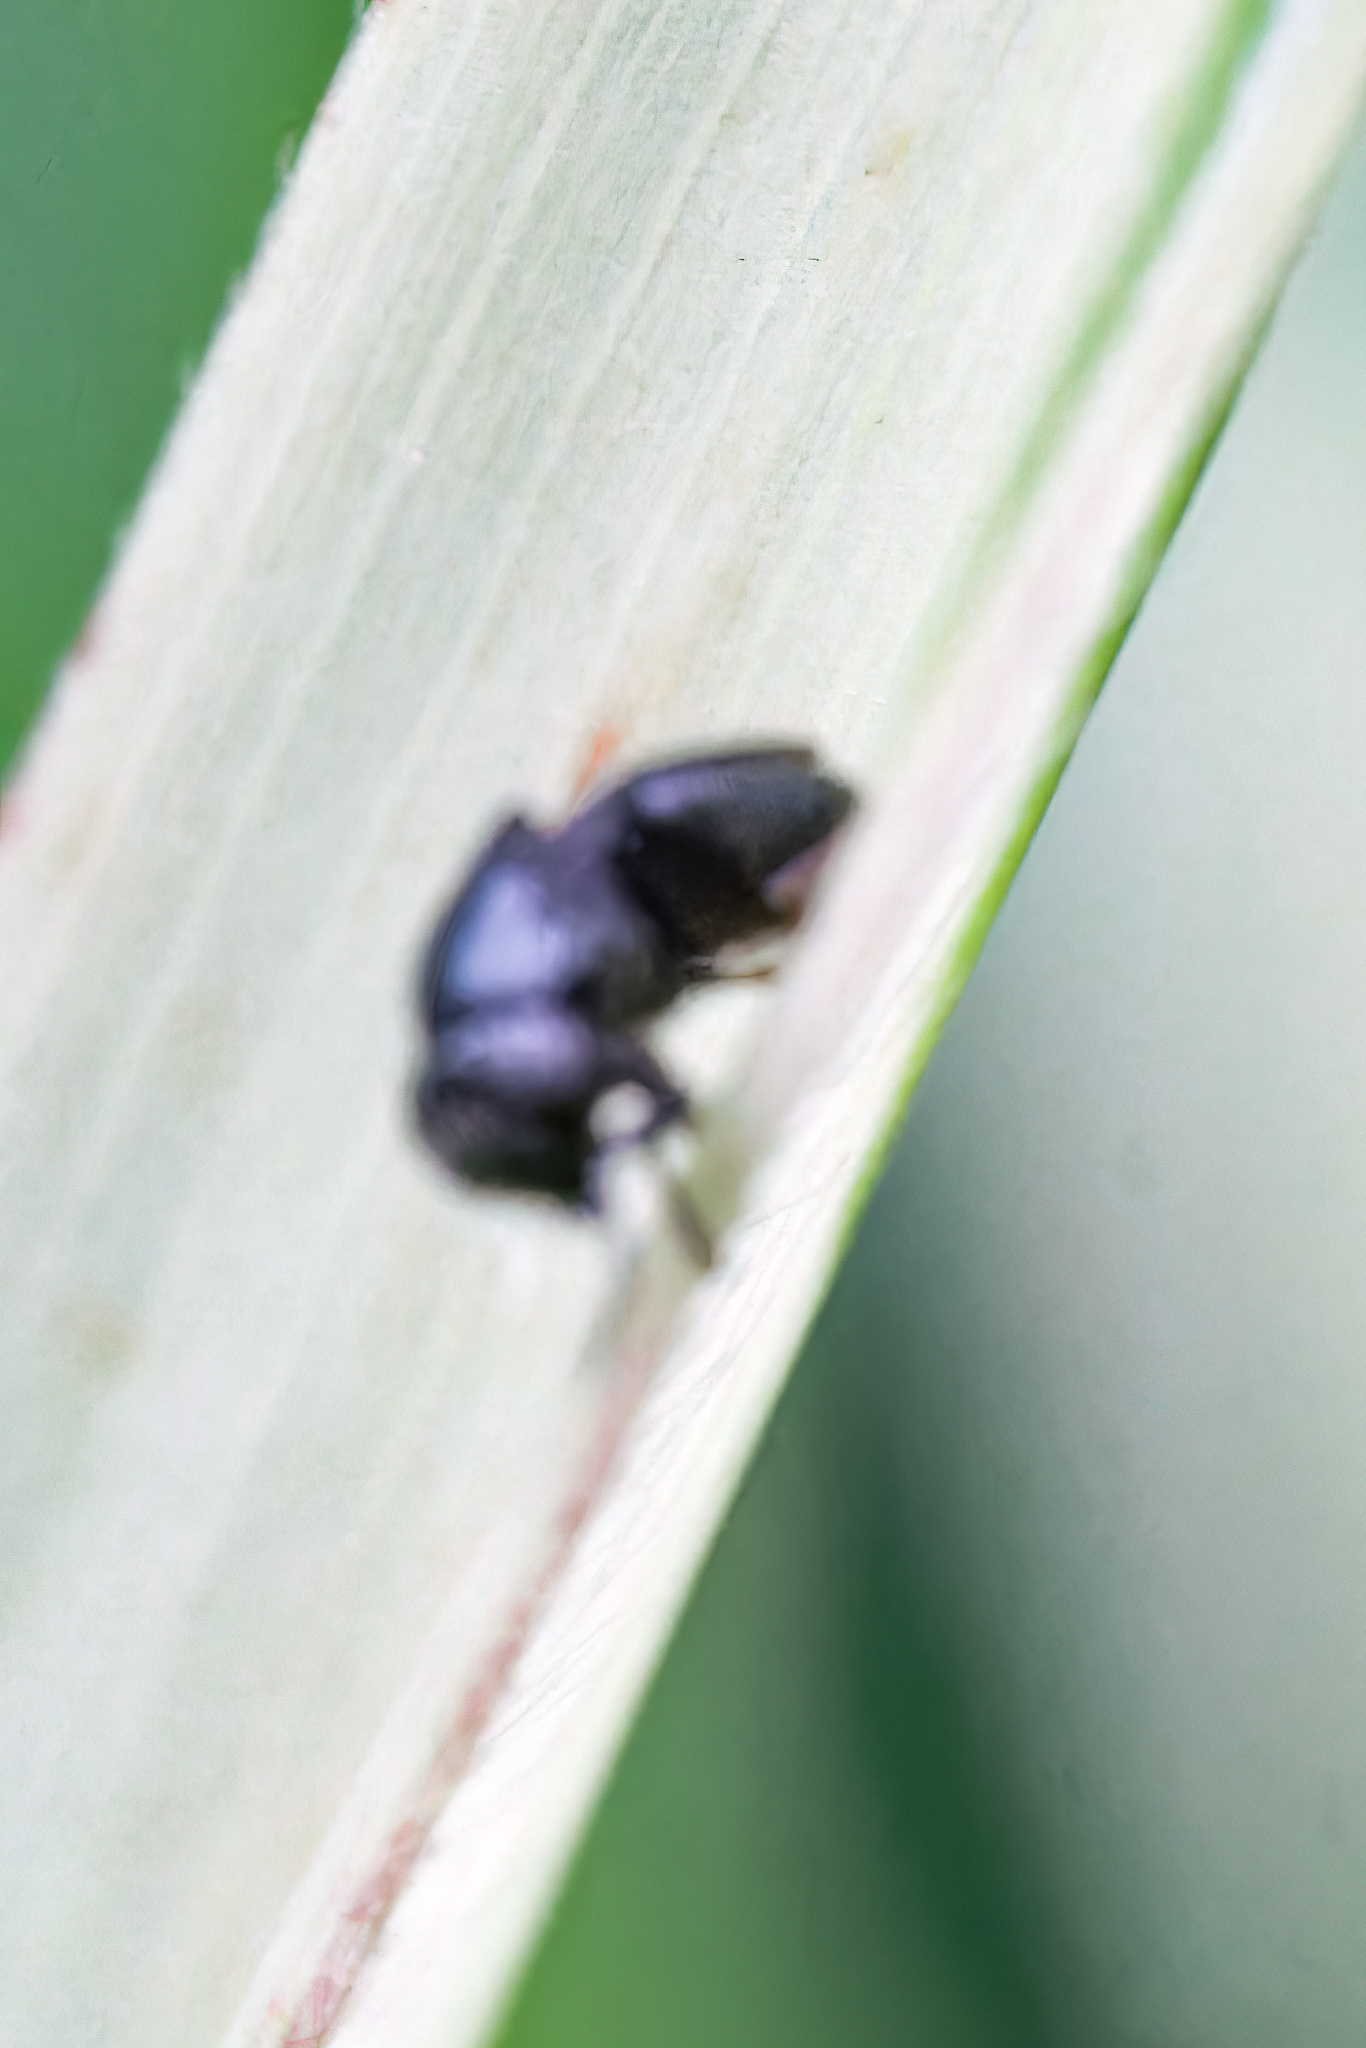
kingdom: Animalia
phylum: Arthropoda
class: Insecta
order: Diptera
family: Ephydridae
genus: Discomyza
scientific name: Discomyza incurva
